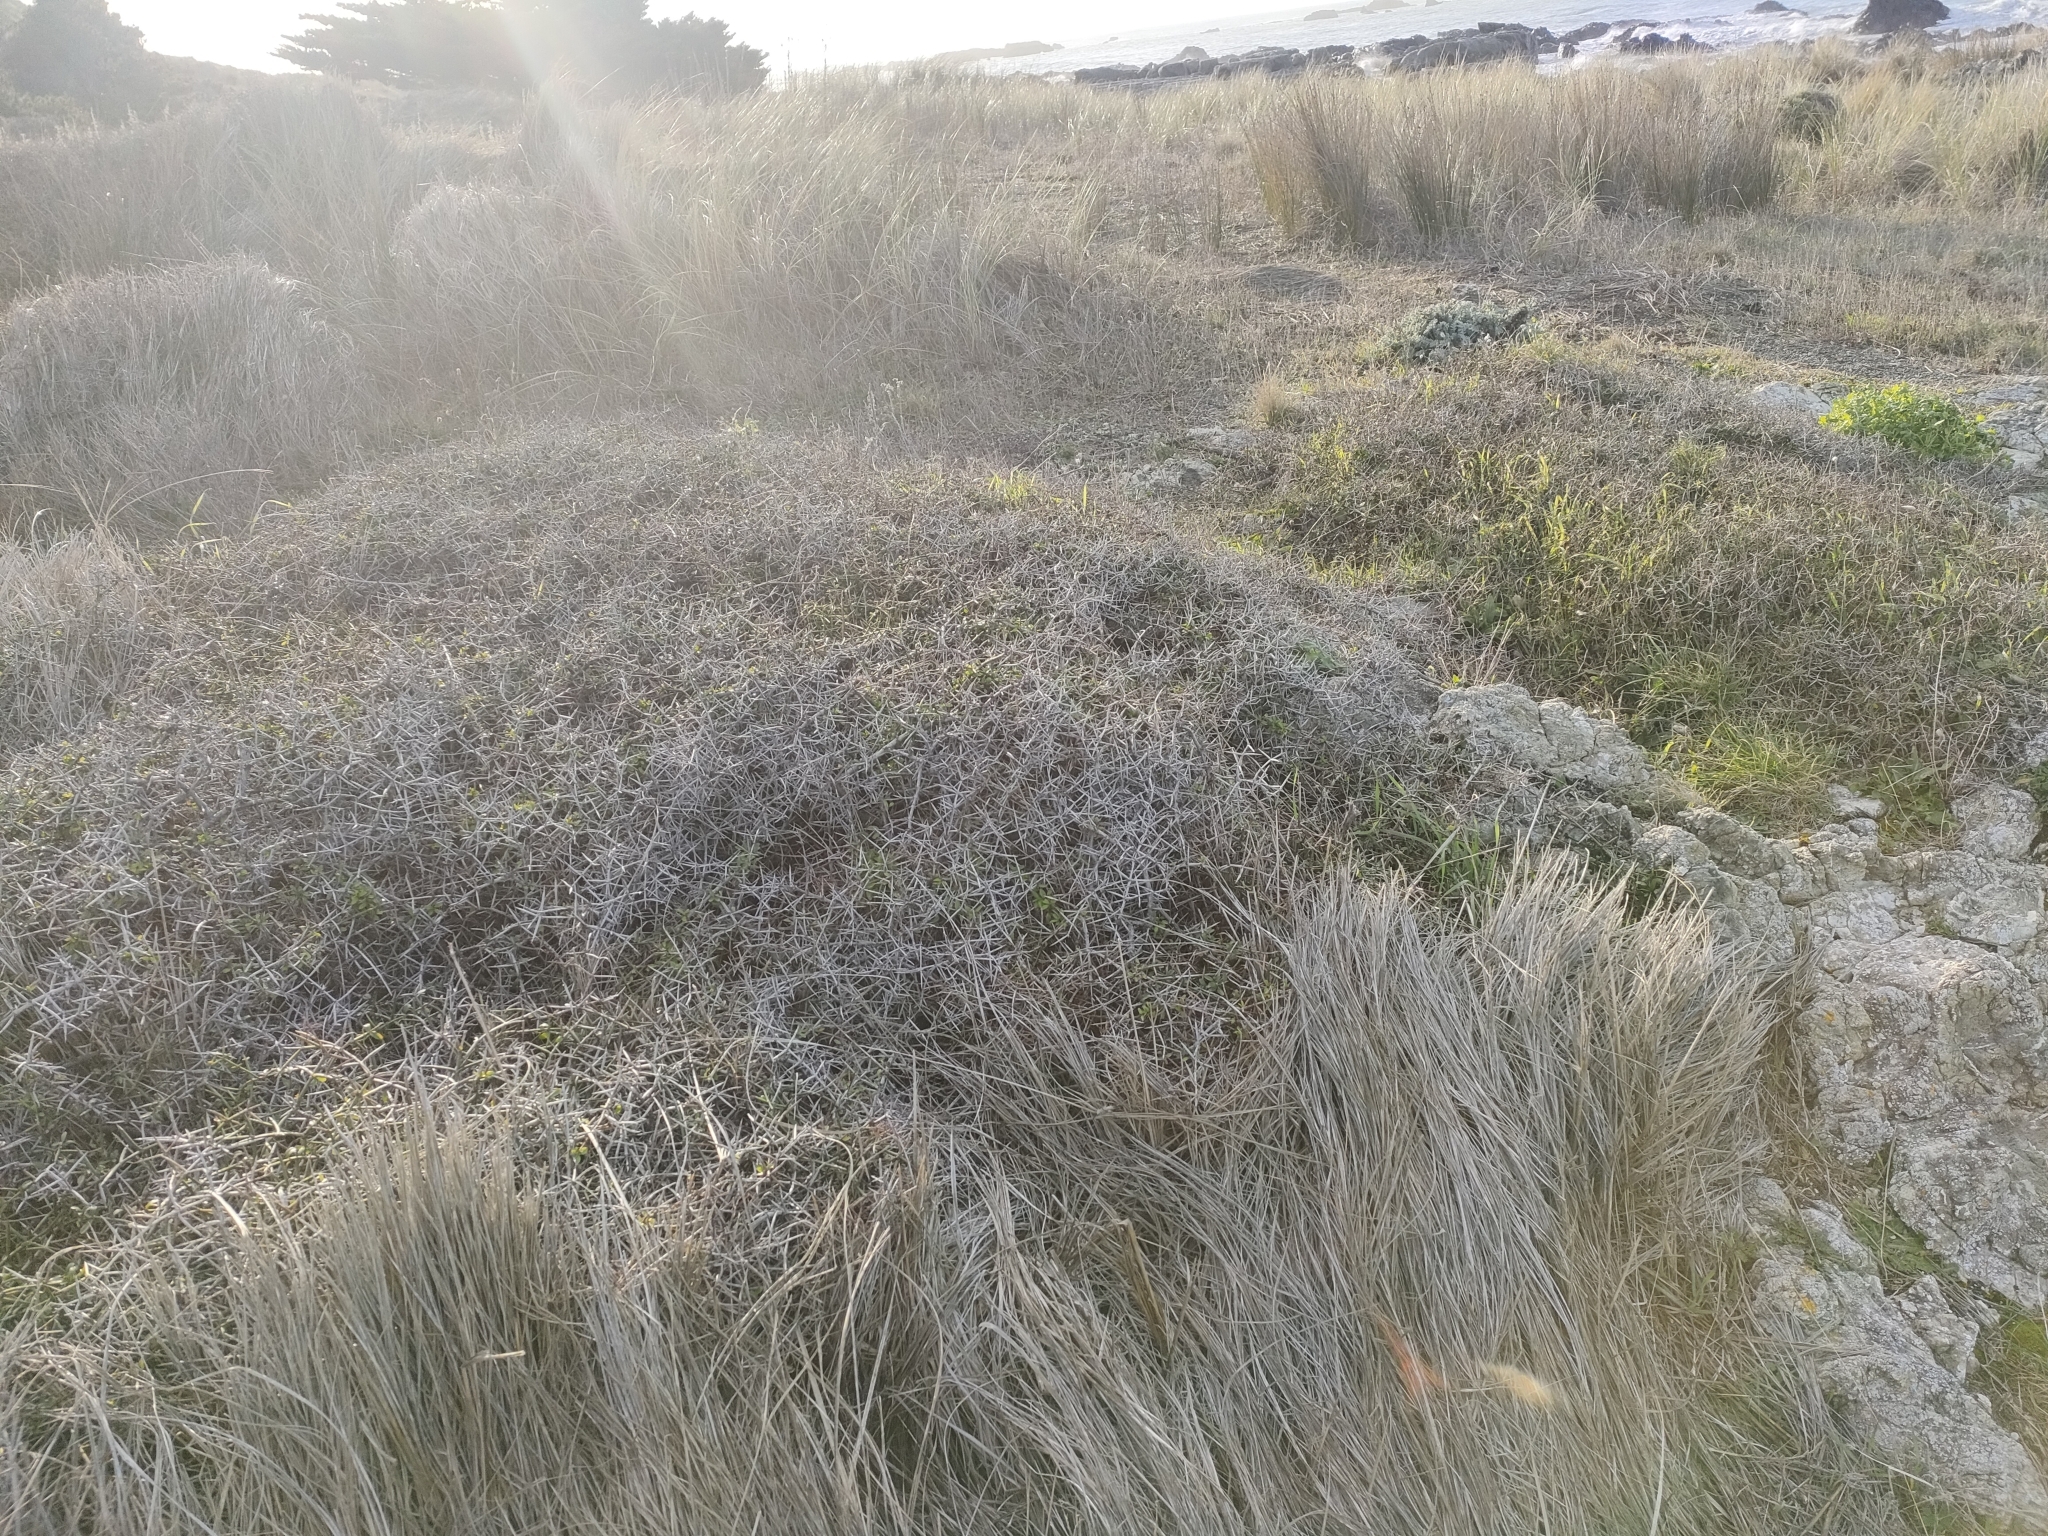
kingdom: Plantae
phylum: Tracheophyta
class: Magnoliopsida
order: Rosales
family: Rhamnaceae
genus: Discaria
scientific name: Discaria toumatou
